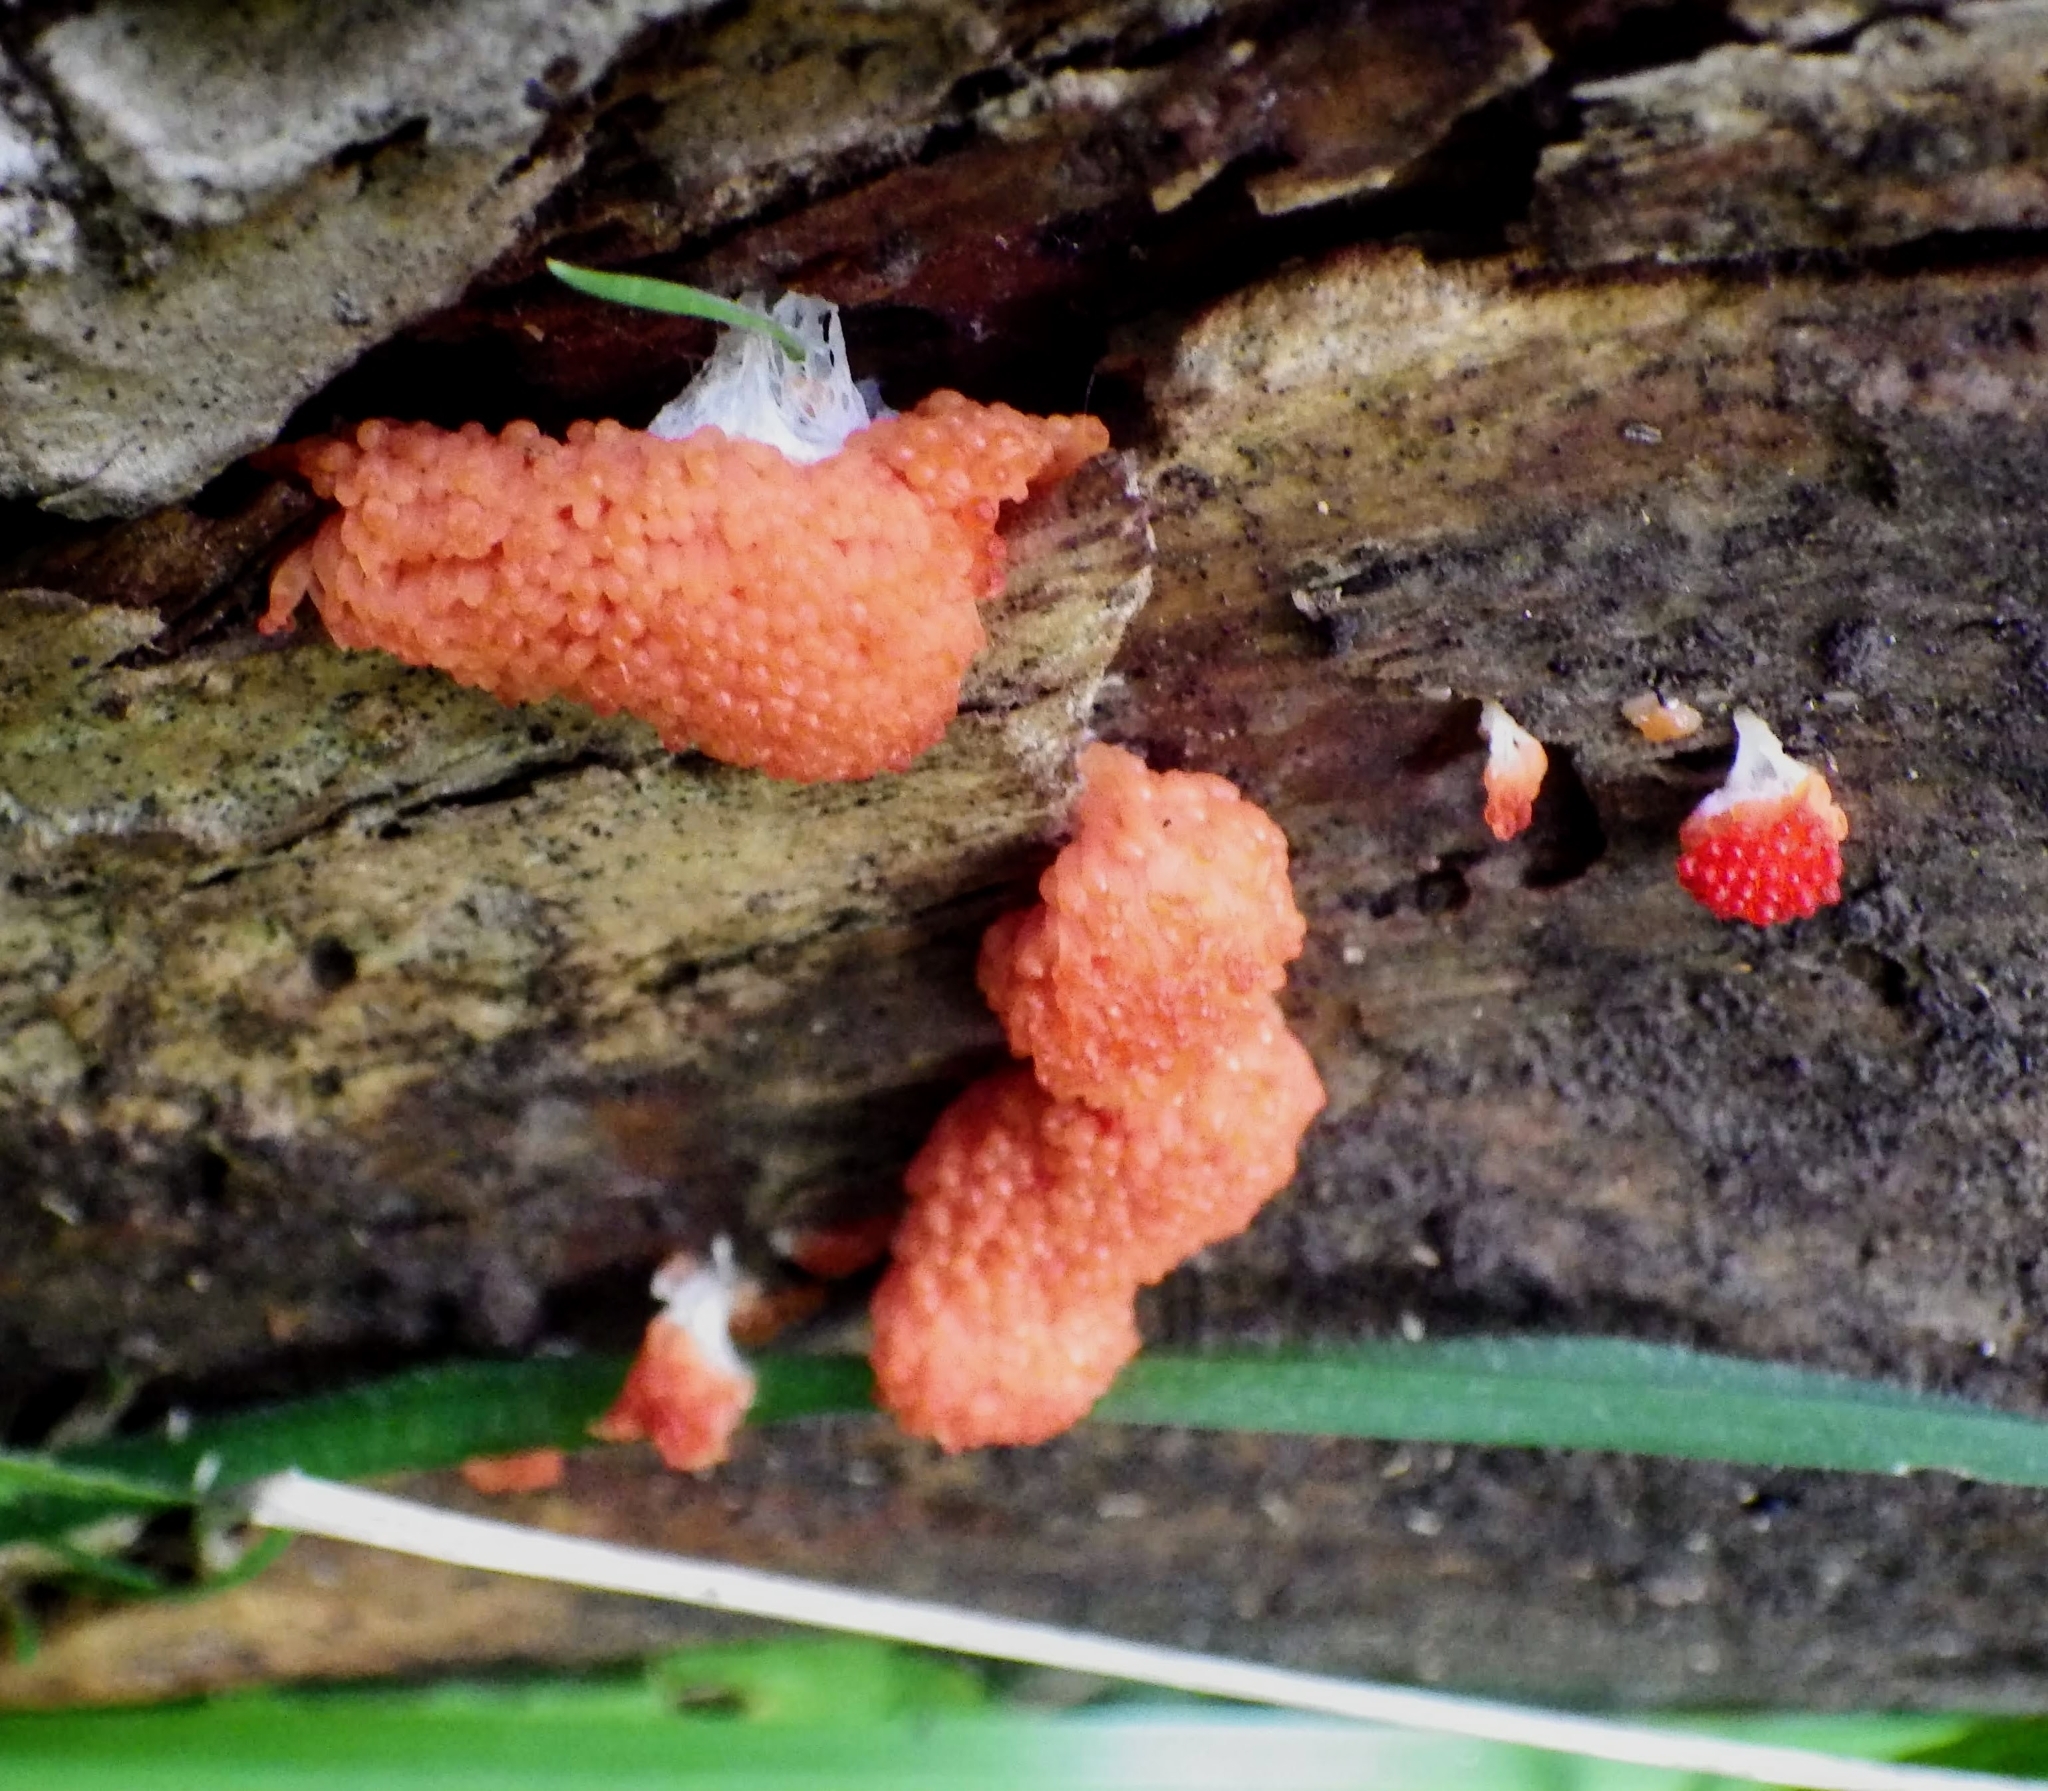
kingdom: Protozoa
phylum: Mycetozoa
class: Myxomycetes
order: Cribrariales
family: Tubiferaceae
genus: Tubifera
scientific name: Tubifera ferruginosa
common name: Red raspberry slime mold
